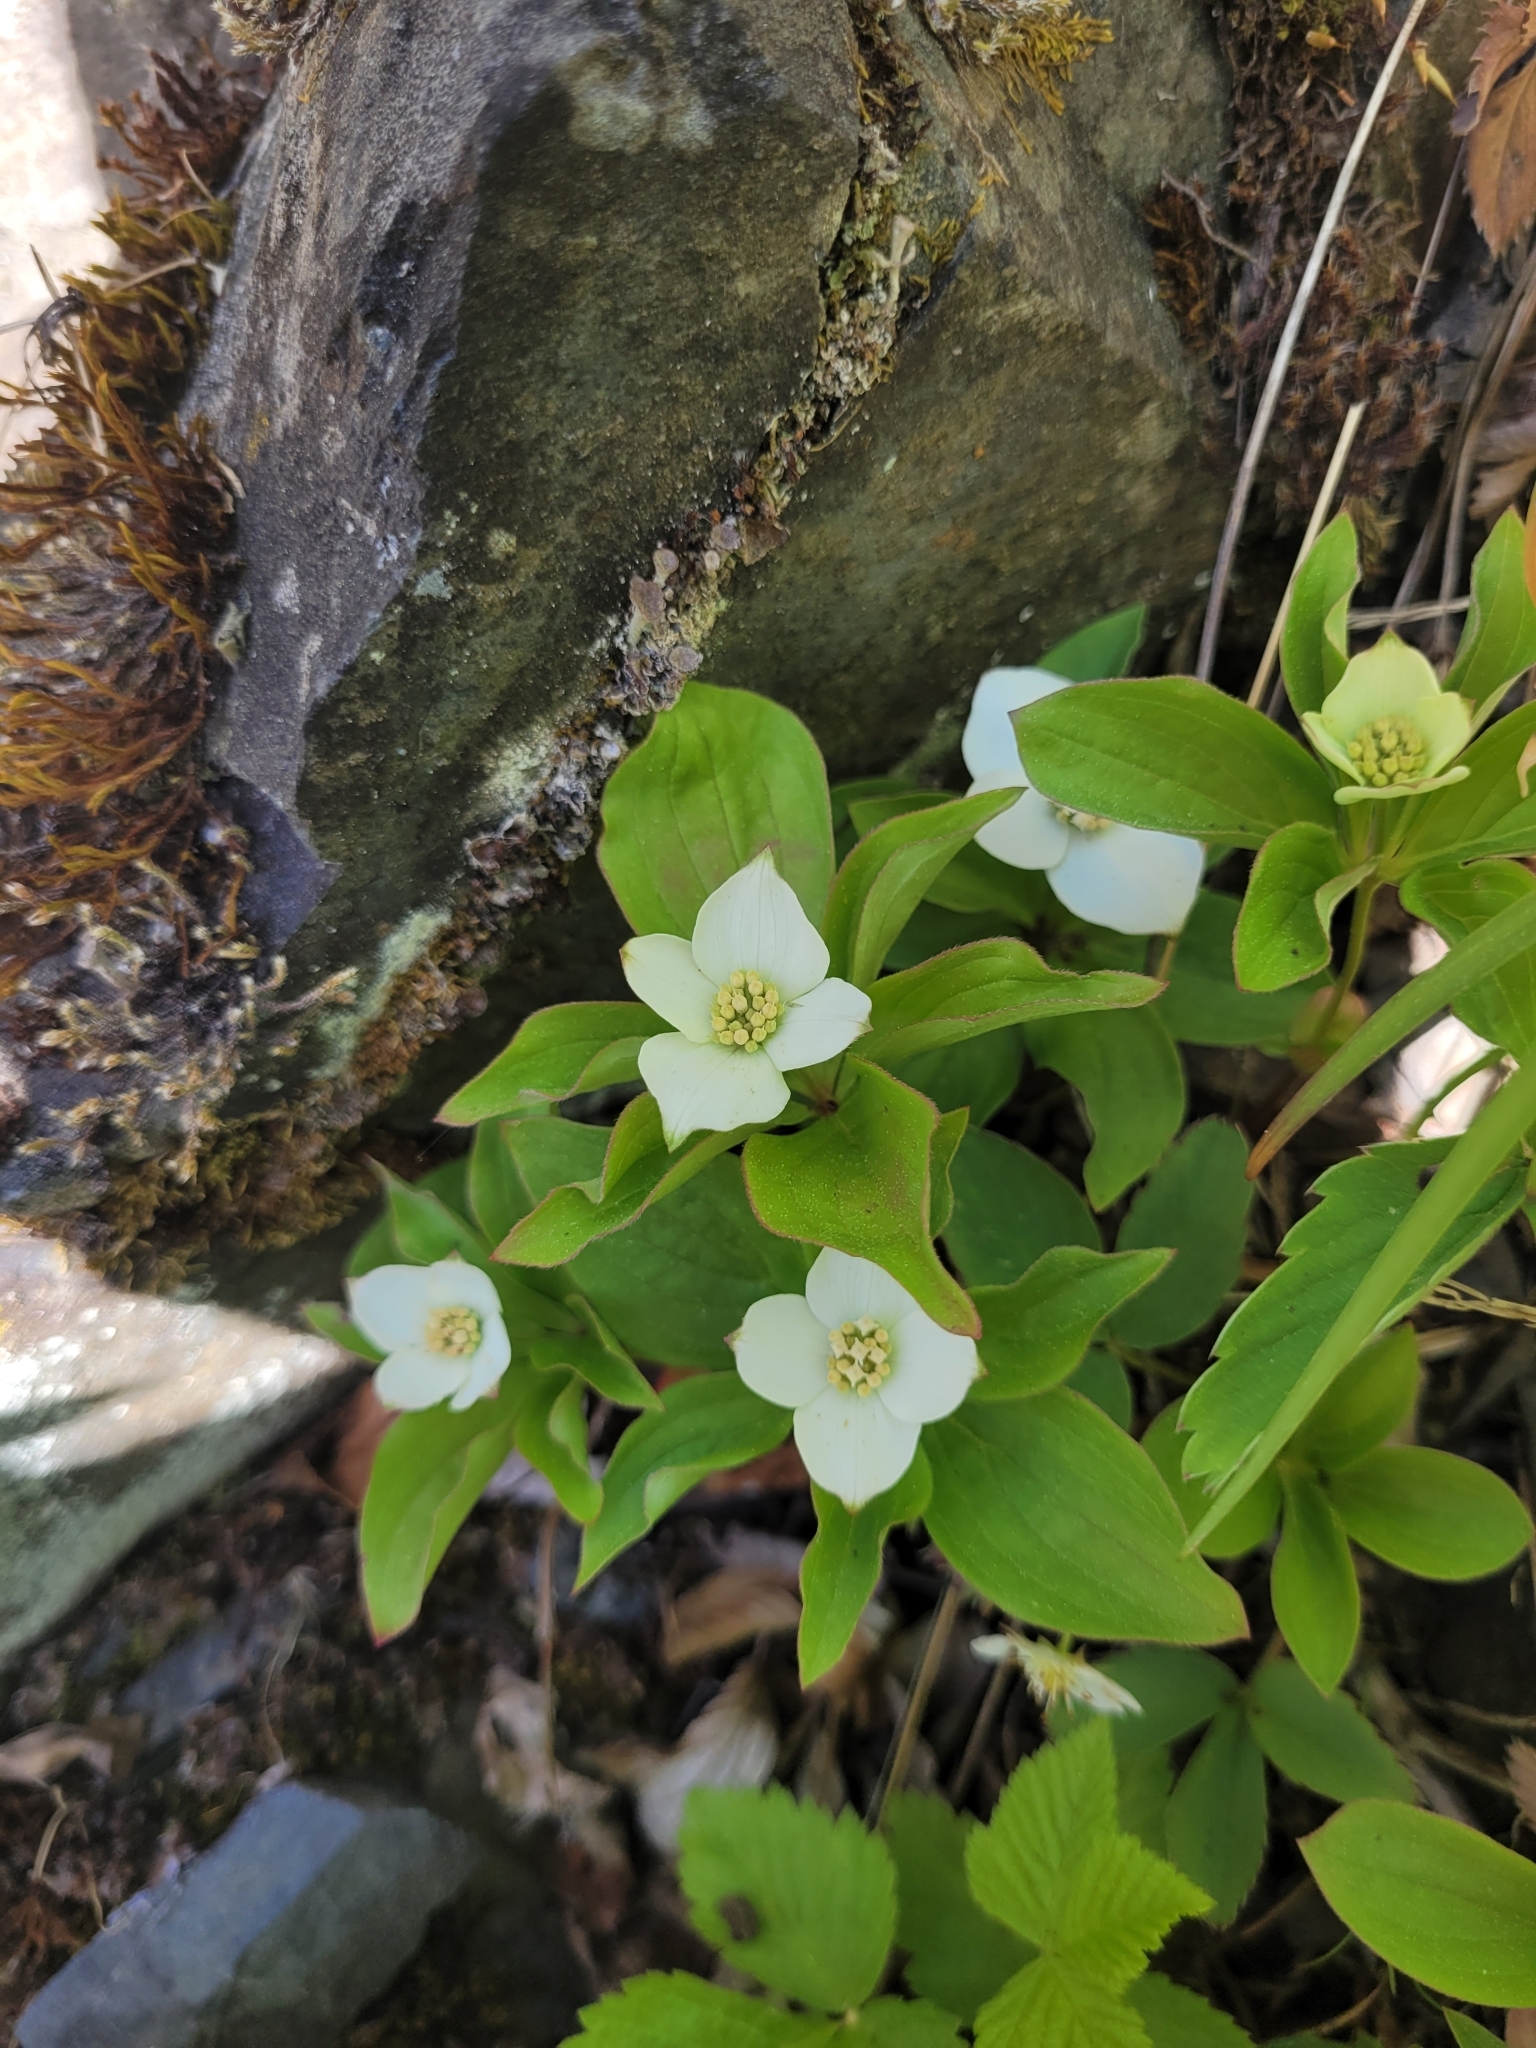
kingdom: Plantae
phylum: Tracheophyta
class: Magnoliopsida
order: Cornales
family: Cornaceae
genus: Cornus
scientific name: Cornus canadensis
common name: Creeping dogwood
